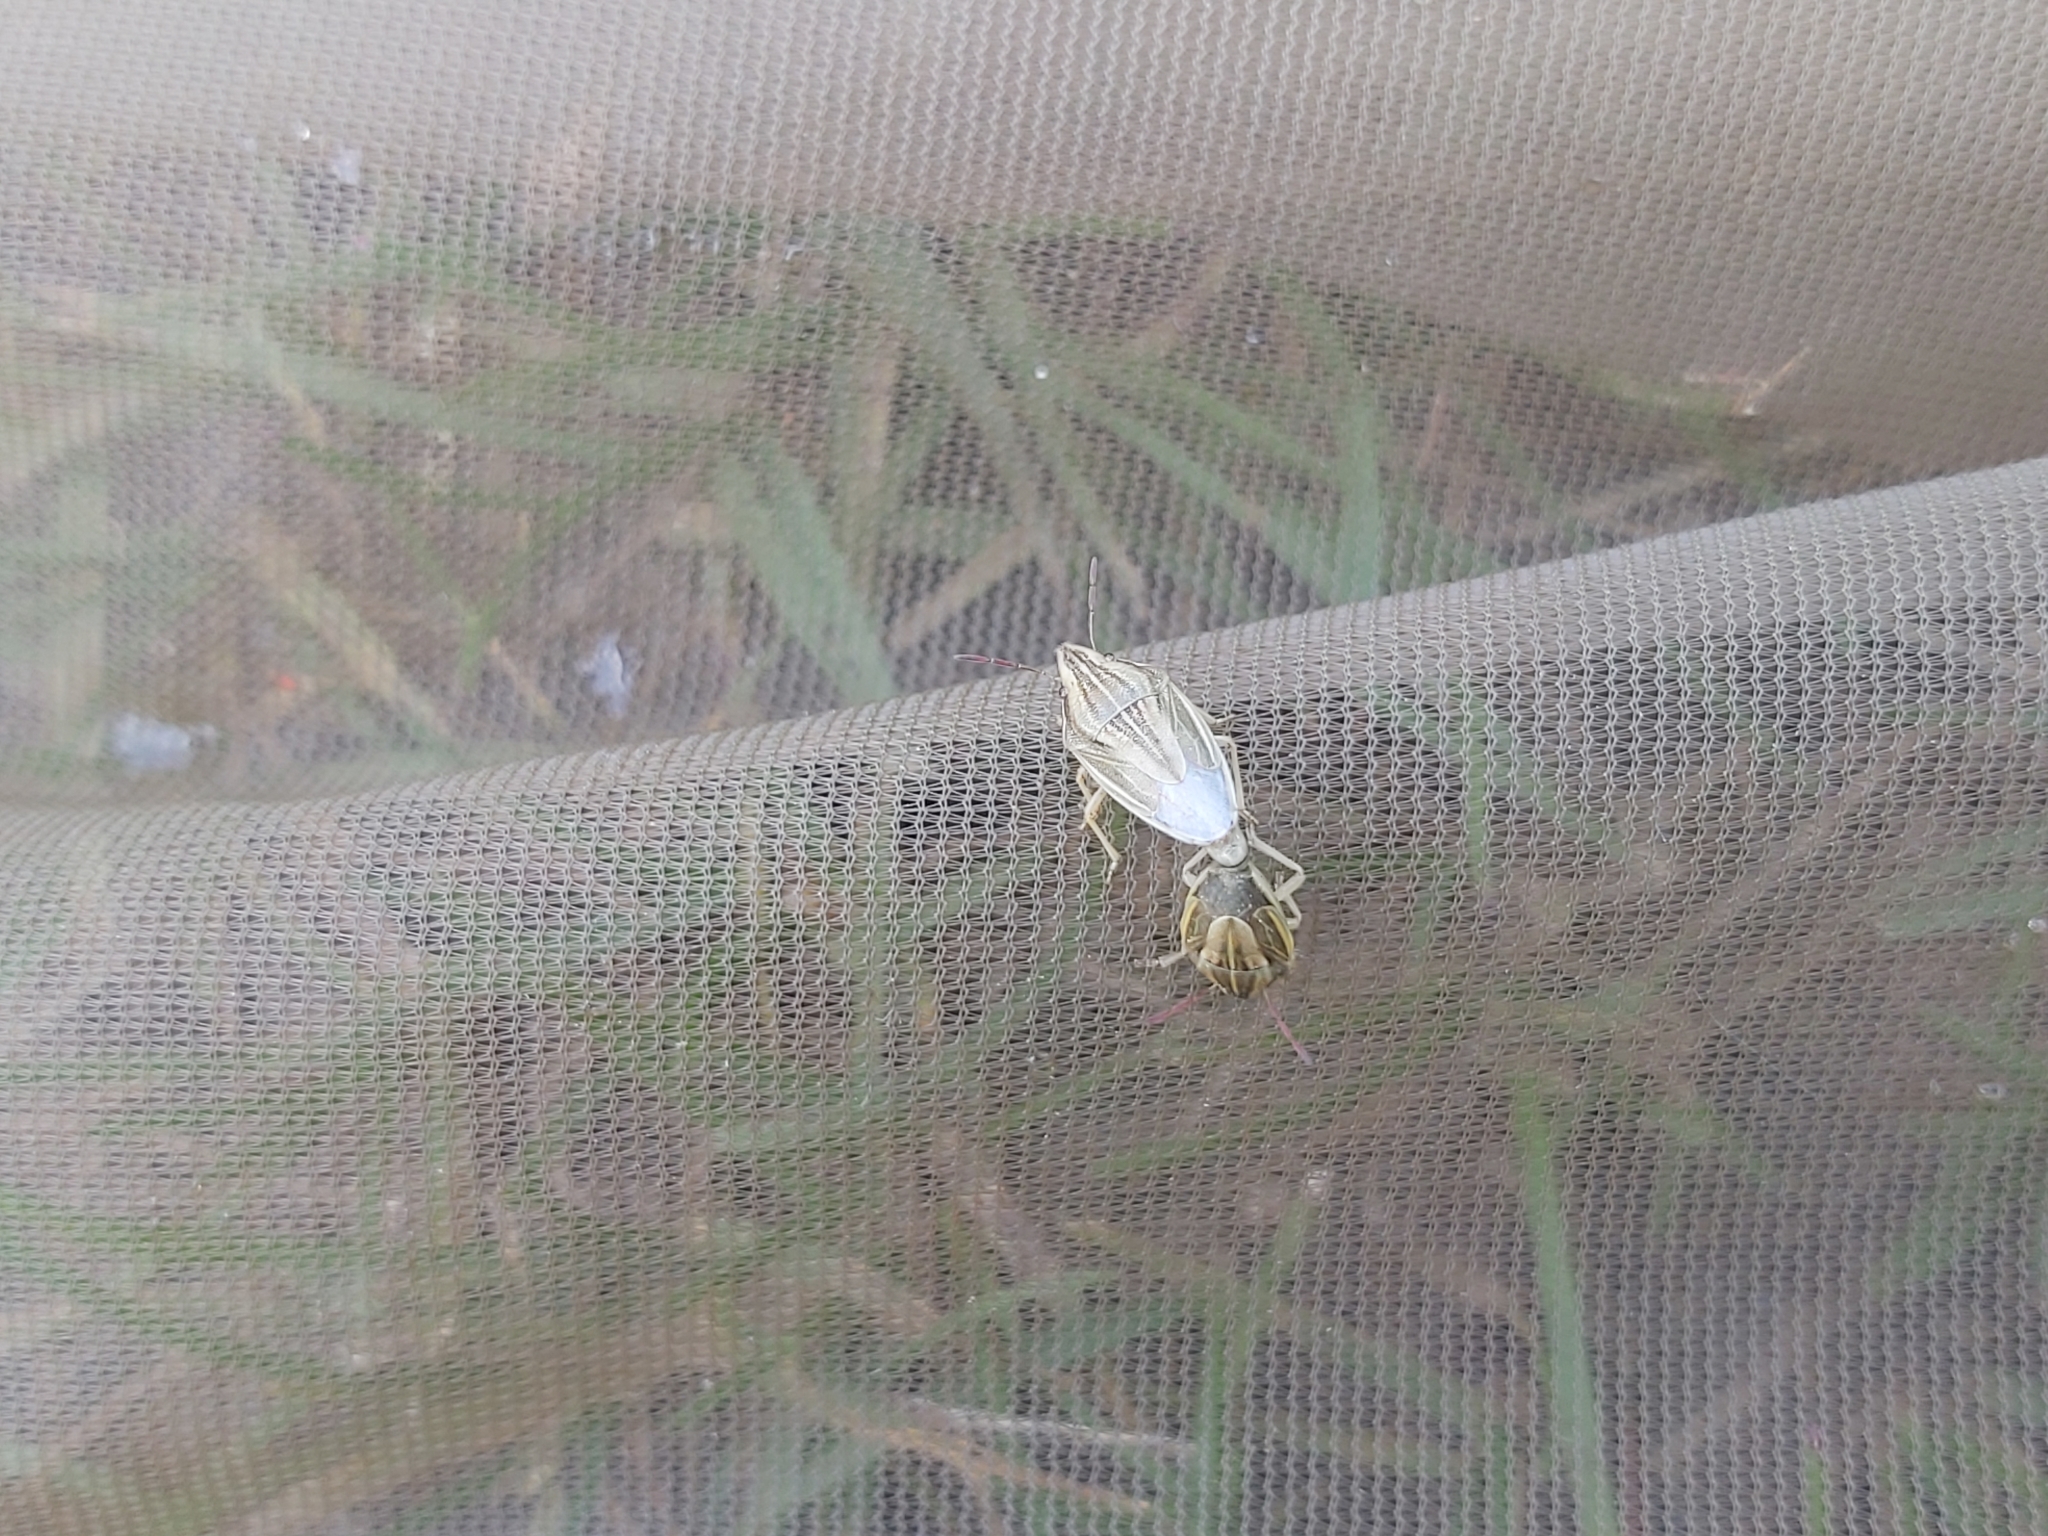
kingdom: Animalia
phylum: Arthropoda
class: Insecta
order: Hemiptera
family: Pentatomidae
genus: Aelia
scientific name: Aelia acuminata
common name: Bishop's mitre
